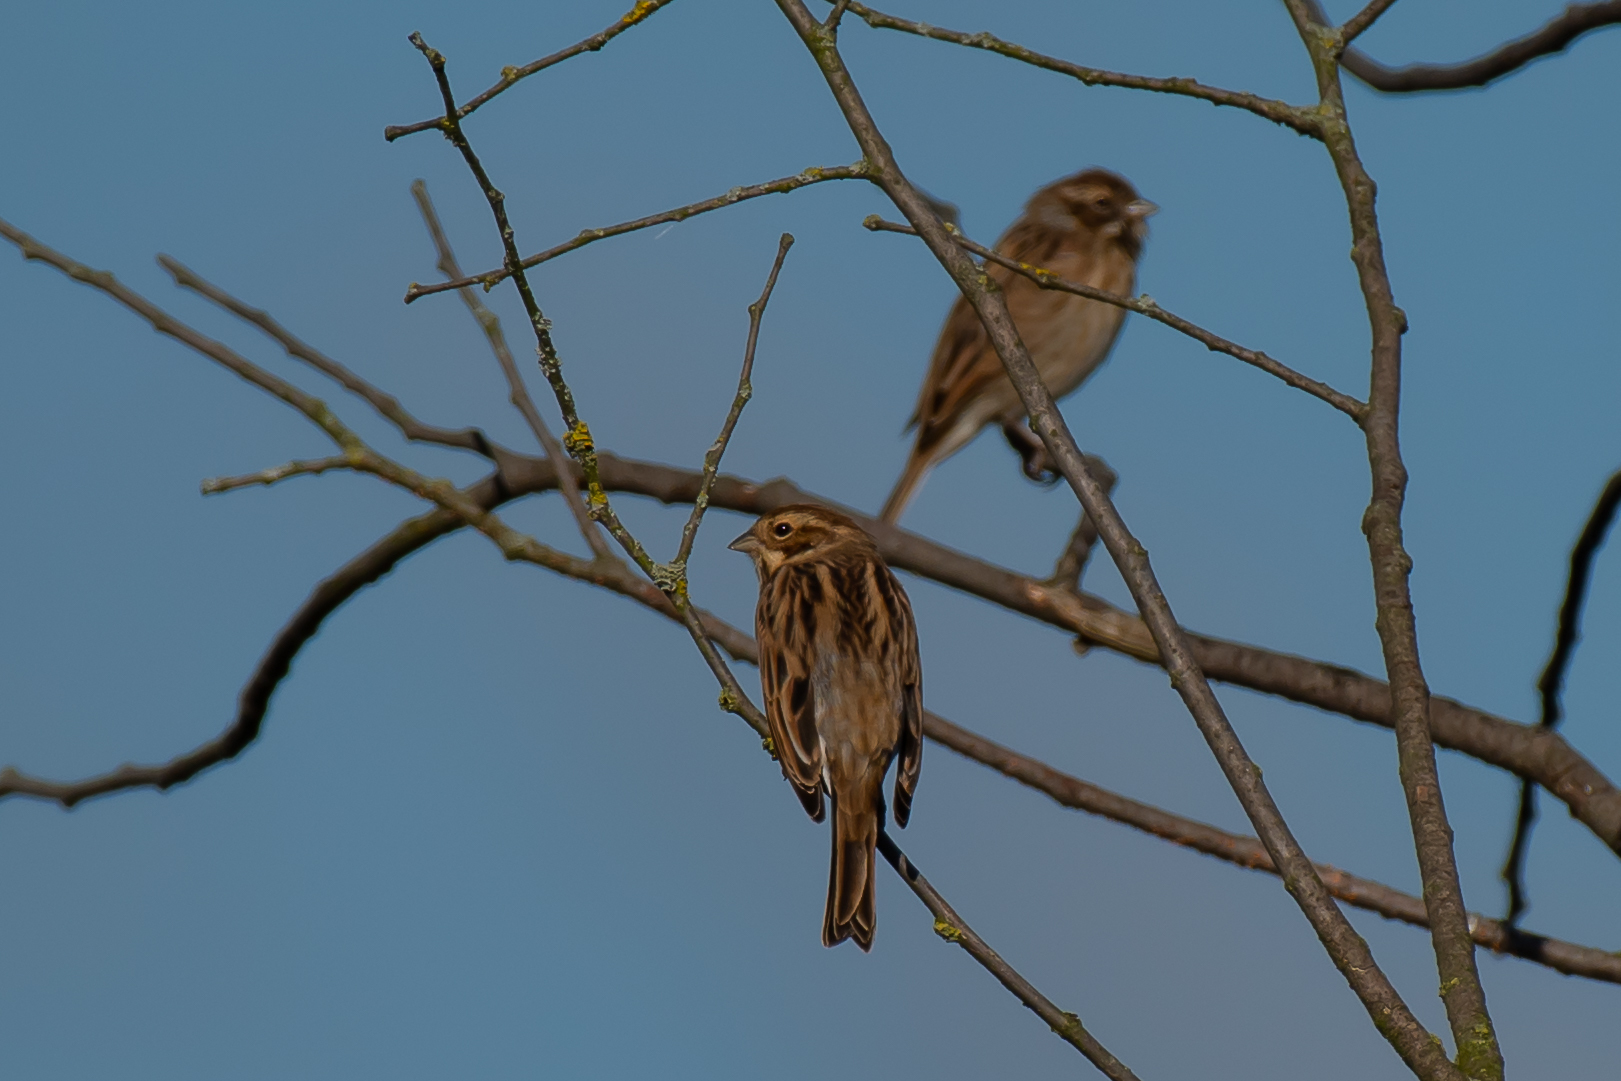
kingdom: Animalia
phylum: Chordata
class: Aves
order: Passeriformes
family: Emberizidae
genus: Emberiza
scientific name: Emberiza schoeniclus
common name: Reed bunting
